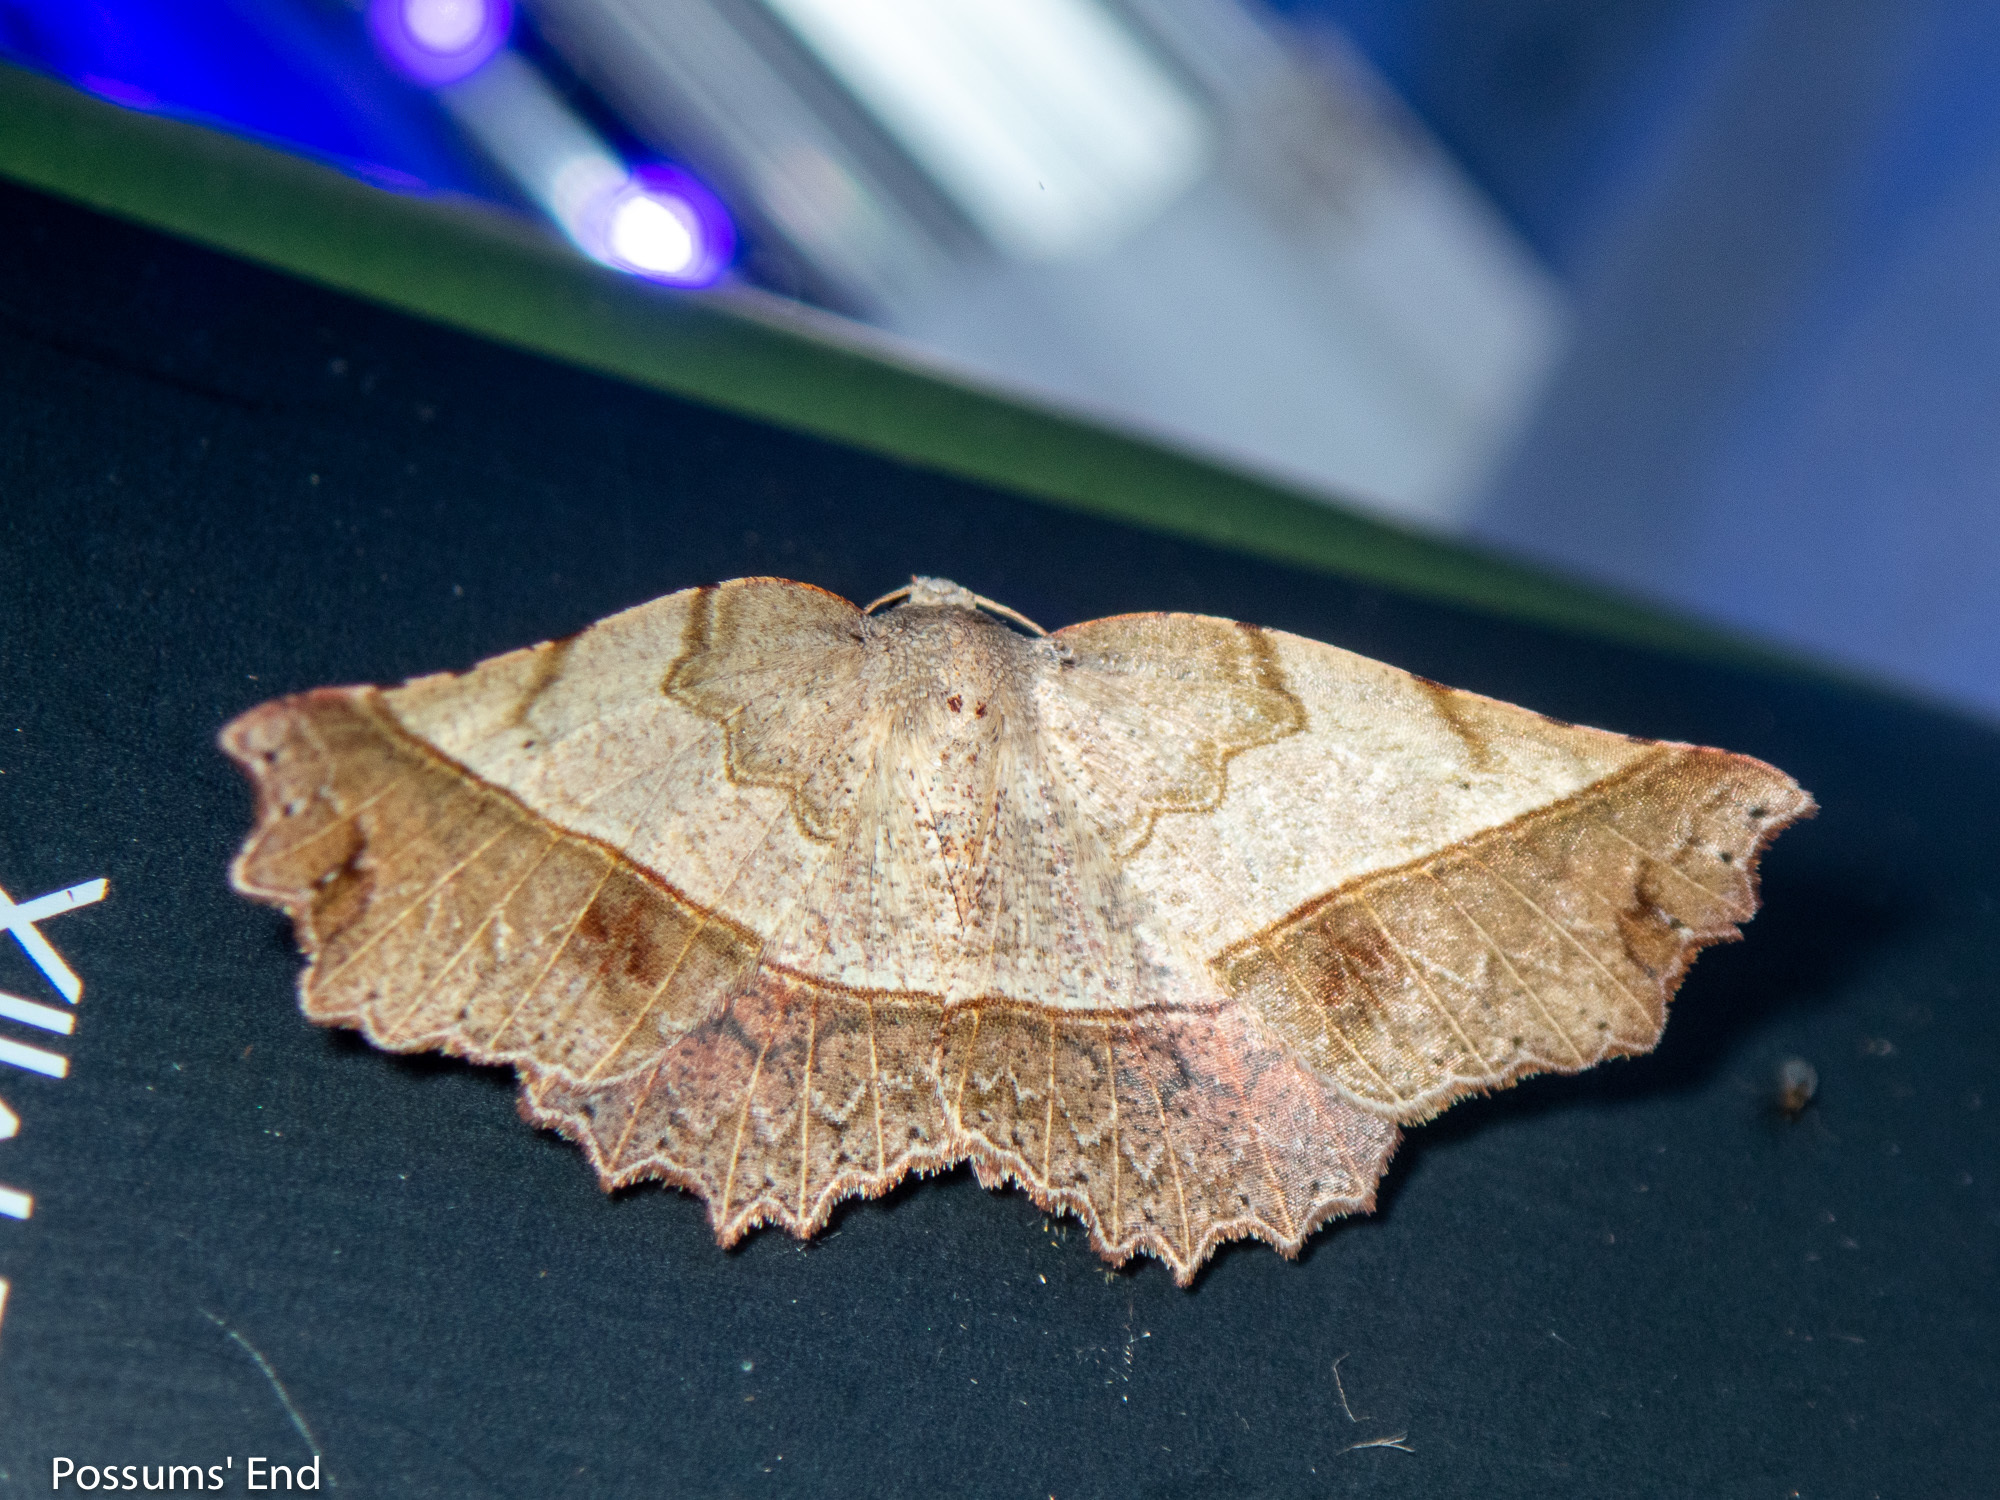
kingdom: Animalia
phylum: Arthropoda
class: Insecta
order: Lepidoptera
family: Geometridae
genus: Ischalis
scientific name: Ischalis gallaria
